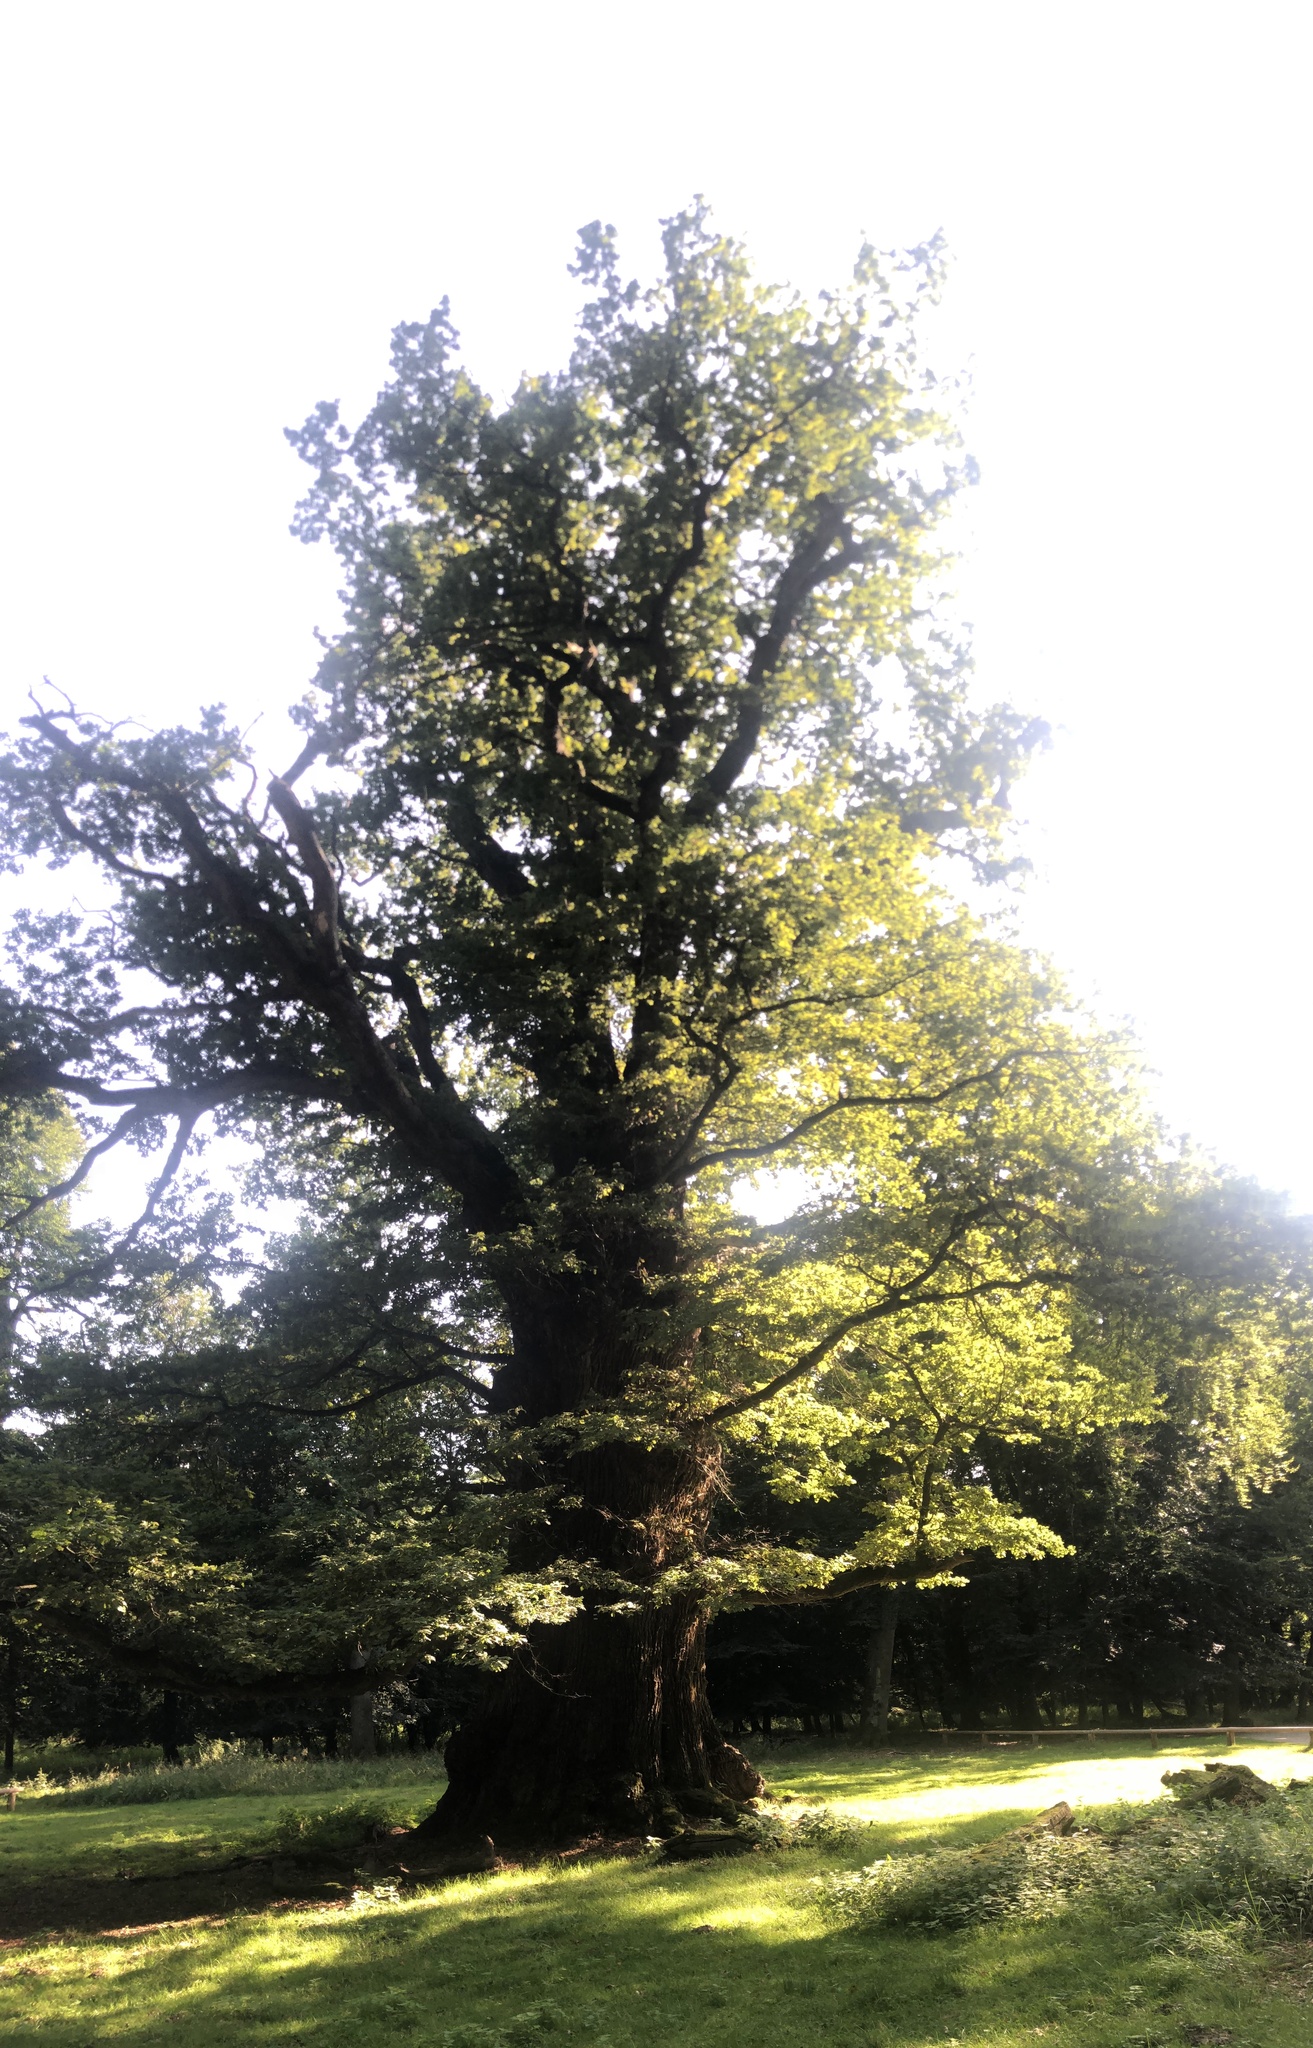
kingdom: Plantae
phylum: Tracheophyta
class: Magnoliopsida
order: Fagales
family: Fagaceae
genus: Quercus
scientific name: Quercus robur
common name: Pedunculate oak
